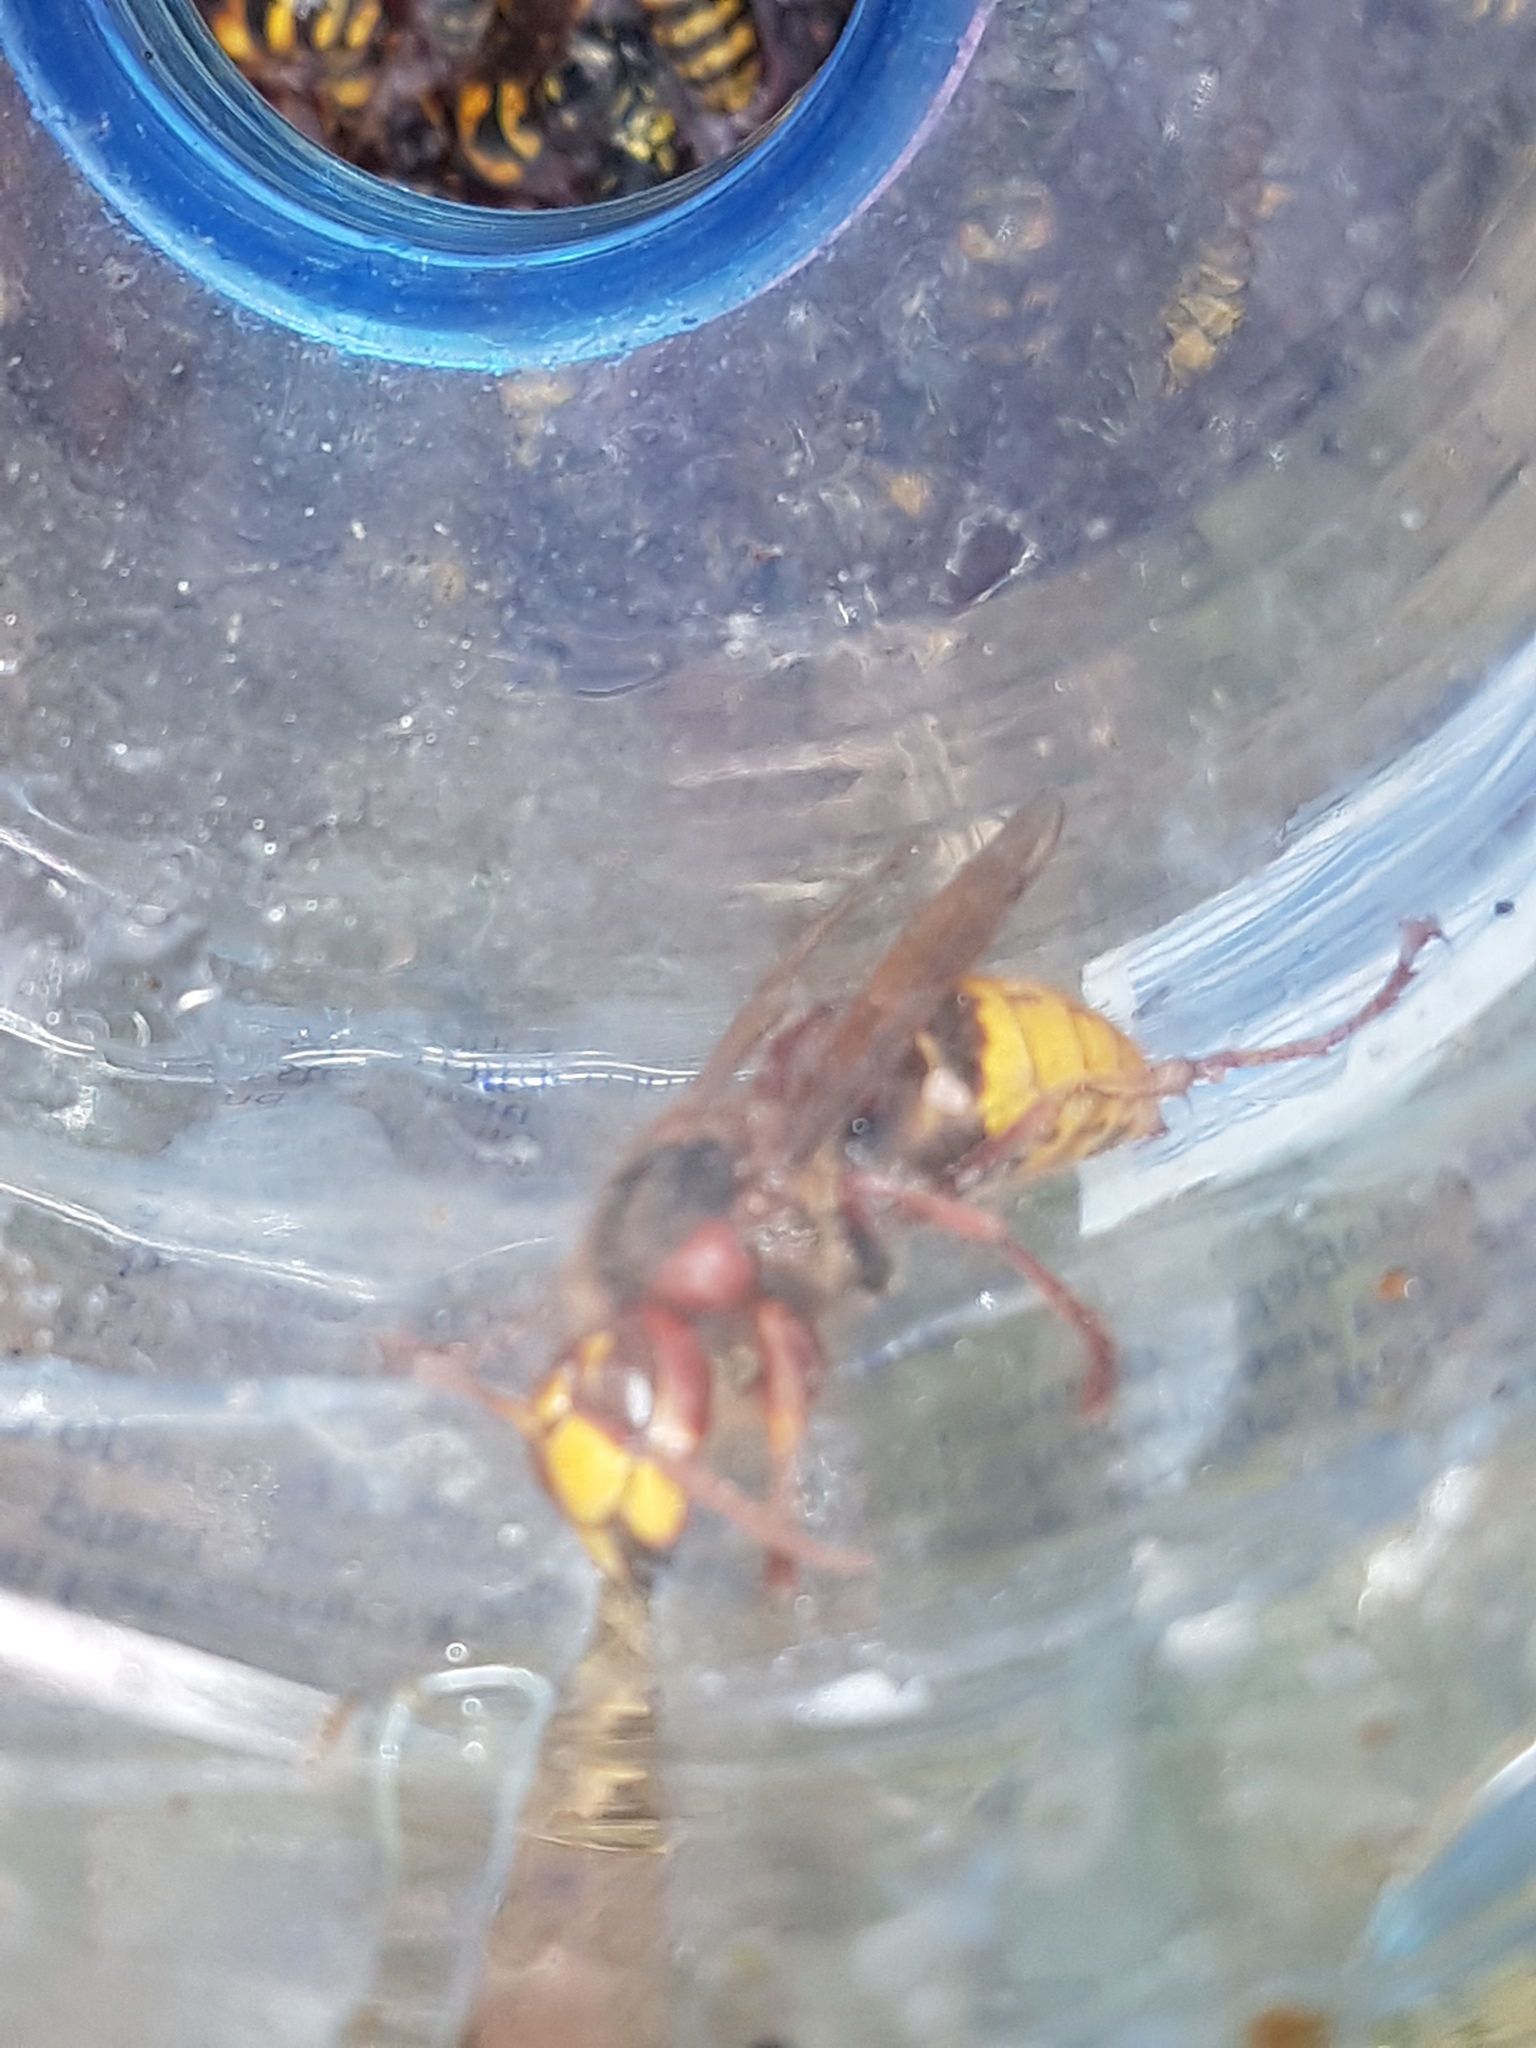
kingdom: Animalia
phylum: Arthropoda
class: Insecta
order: Hymenoptera
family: Vespidae
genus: Vespa
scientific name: Vespa crabro
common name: Hornet
